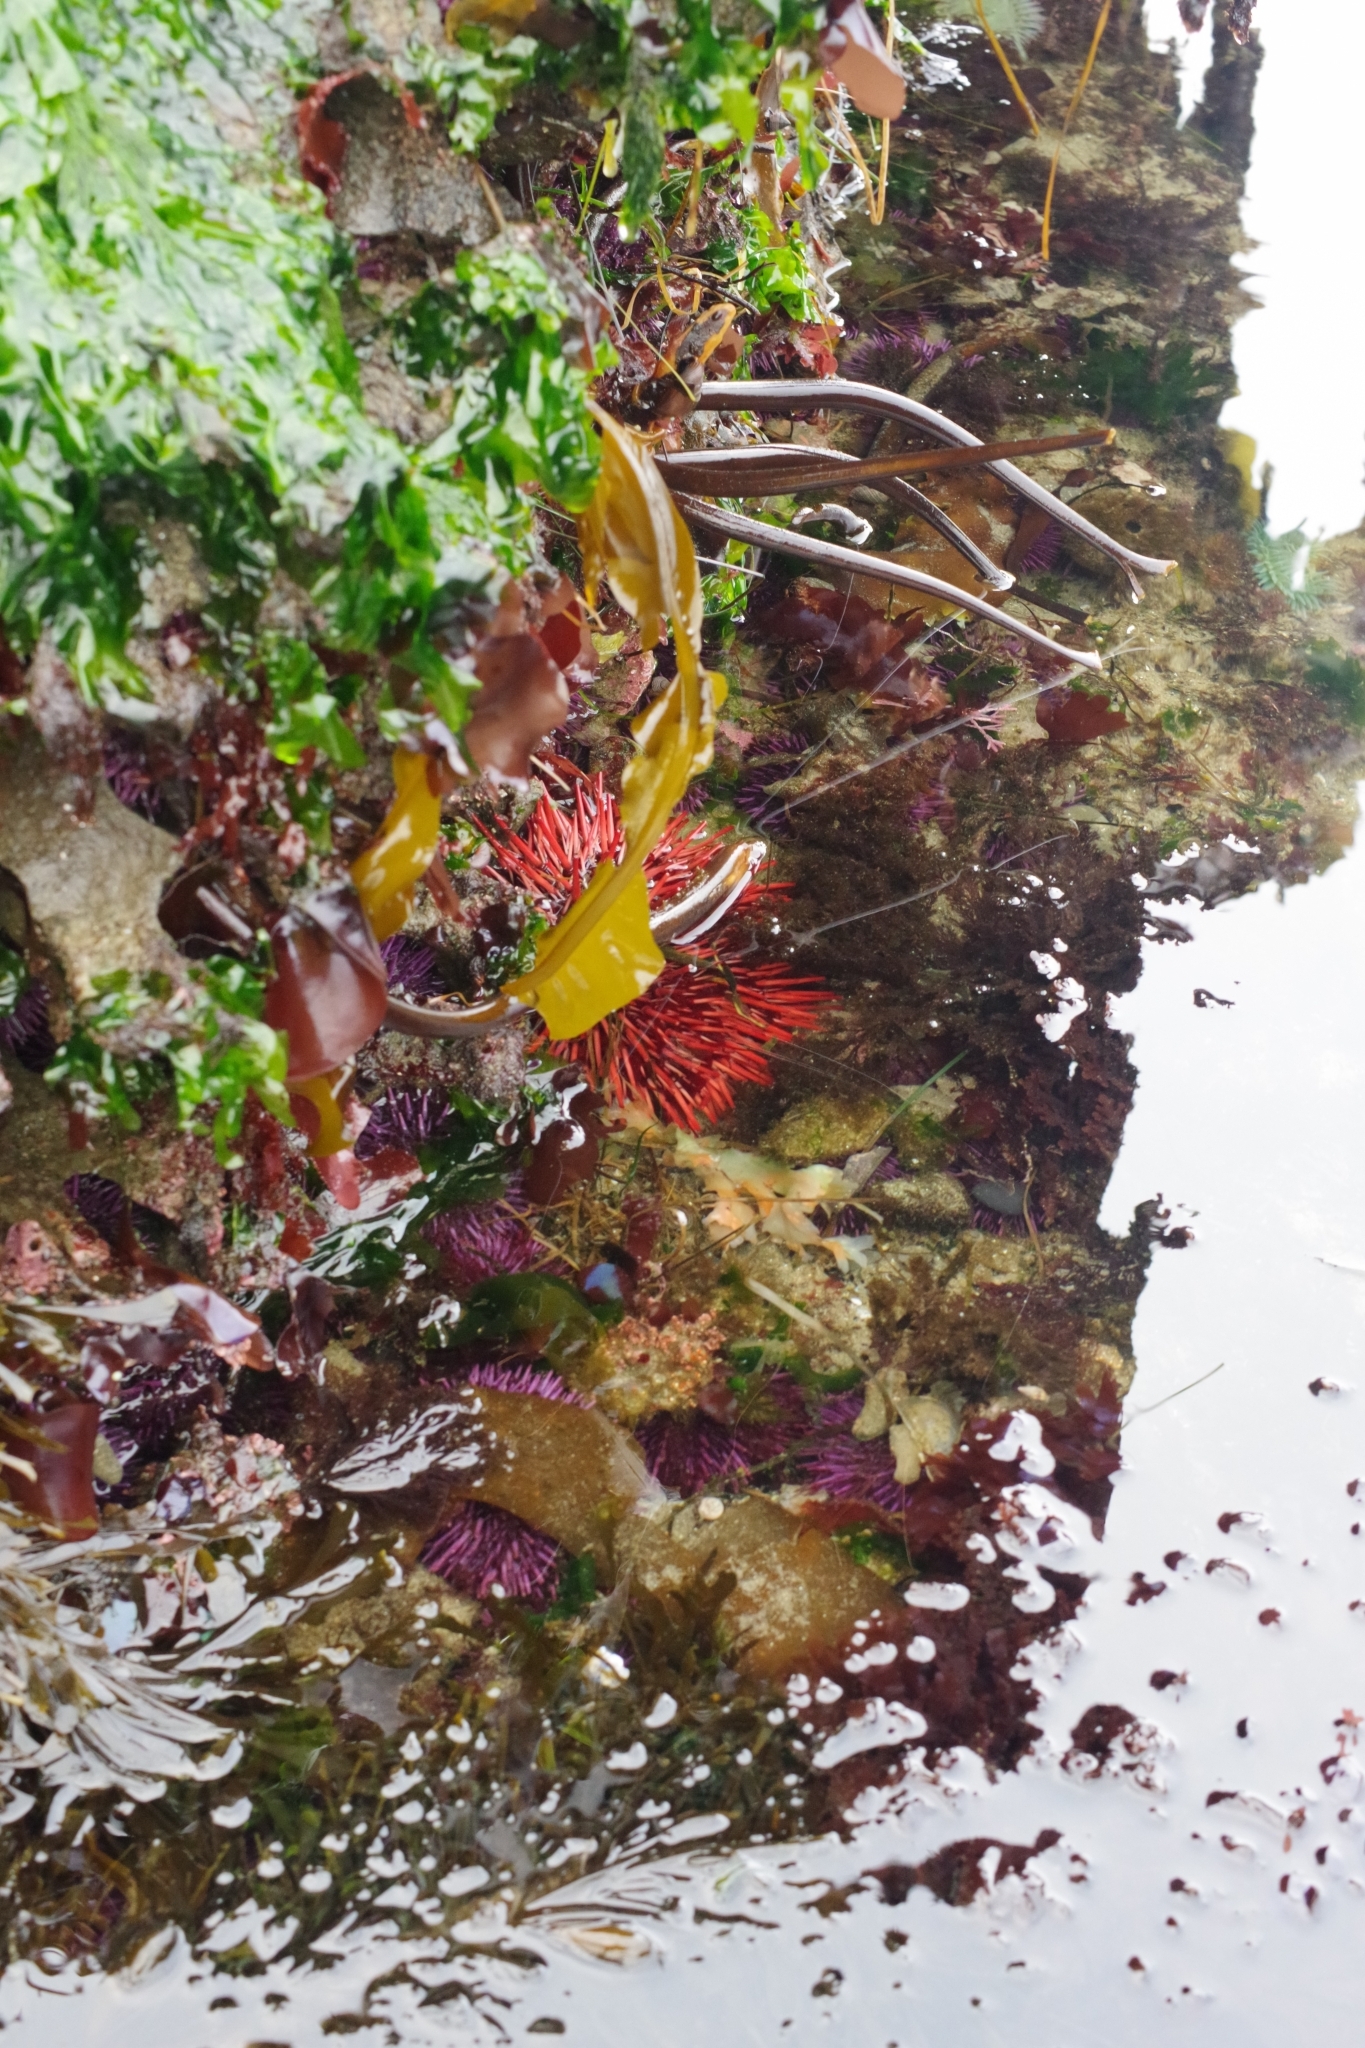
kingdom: Animalia
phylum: Echinodermata
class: Echinoidea
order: Camarodonta
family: Strongylocentrotidae
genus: Mesocentrotus
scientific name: Mesocentrotus franciscanus
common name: Red sea urchin
